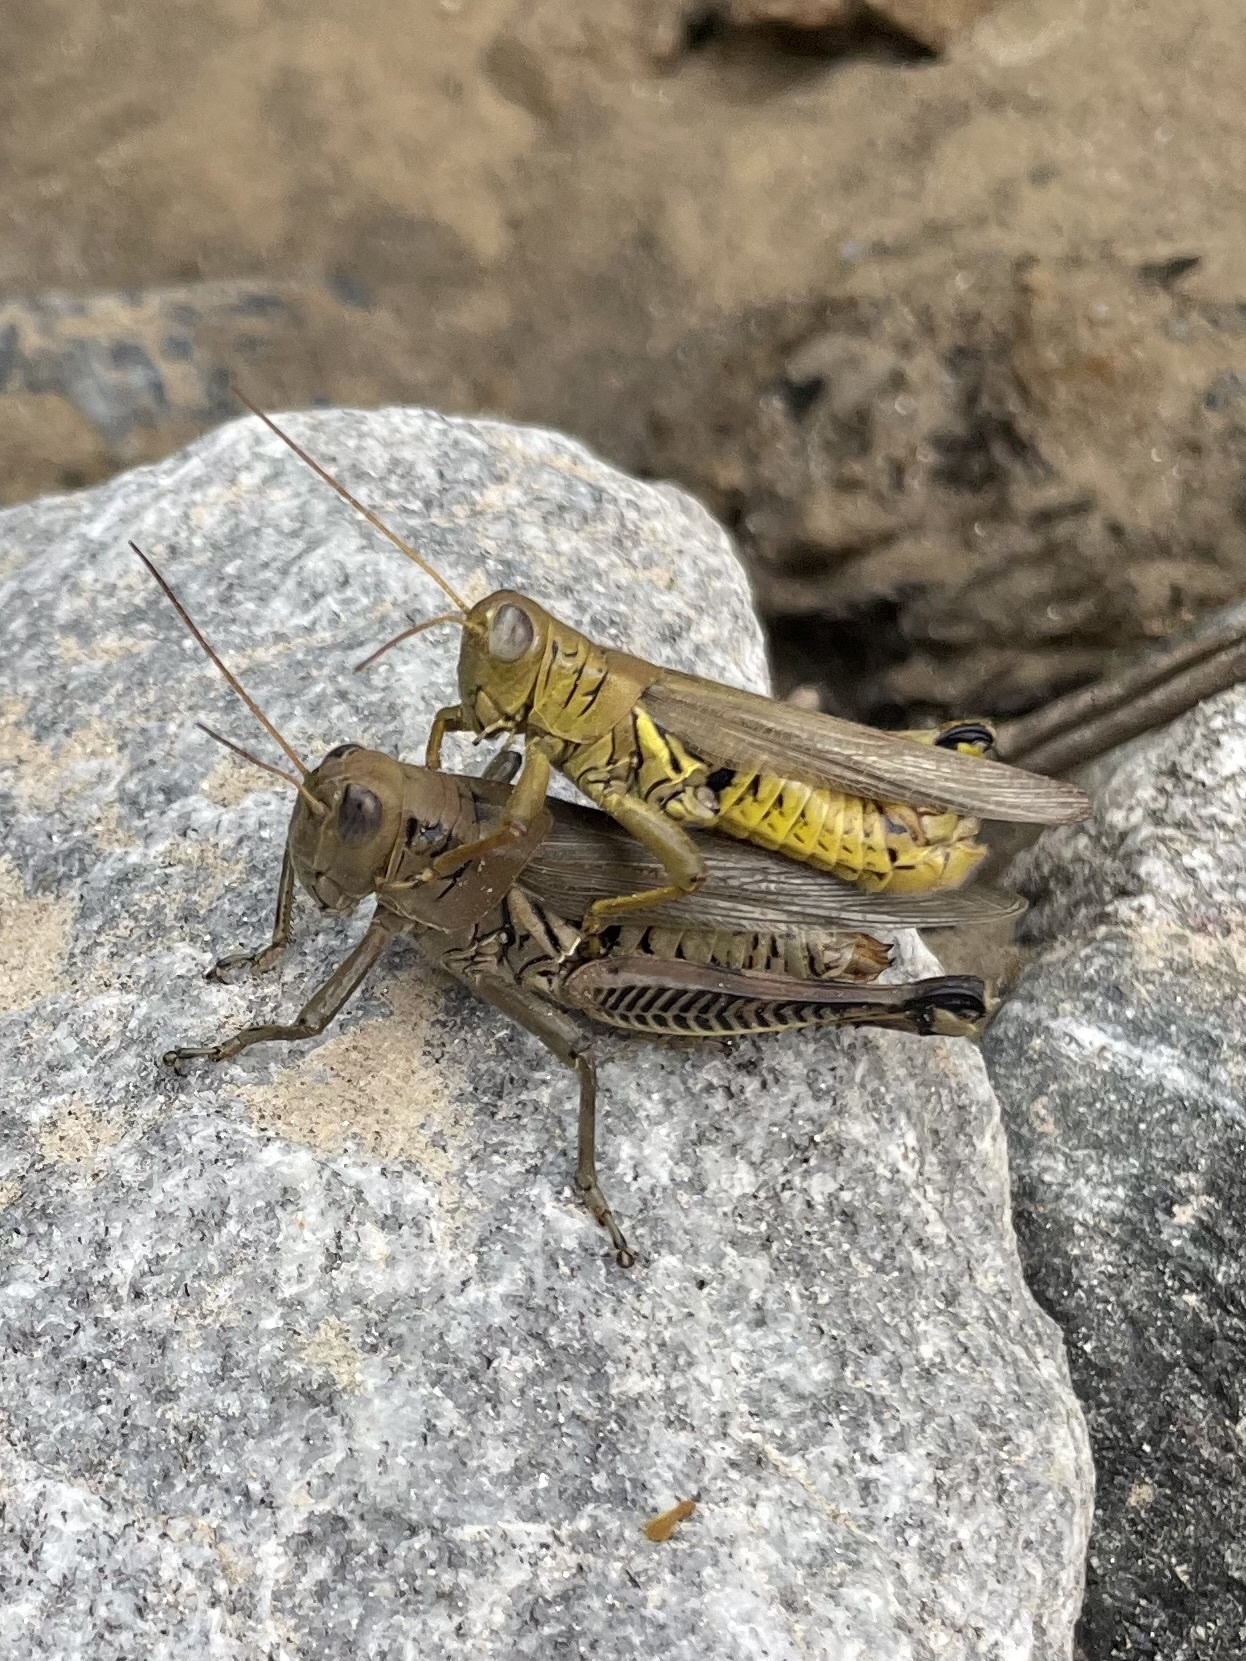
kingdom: Animalia
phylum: Arthropoda
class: Insecta
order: Orthoptera
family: Acrididae
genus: Melanoplus
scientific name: Melanoplus differentialis
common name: Differential grasshopper
